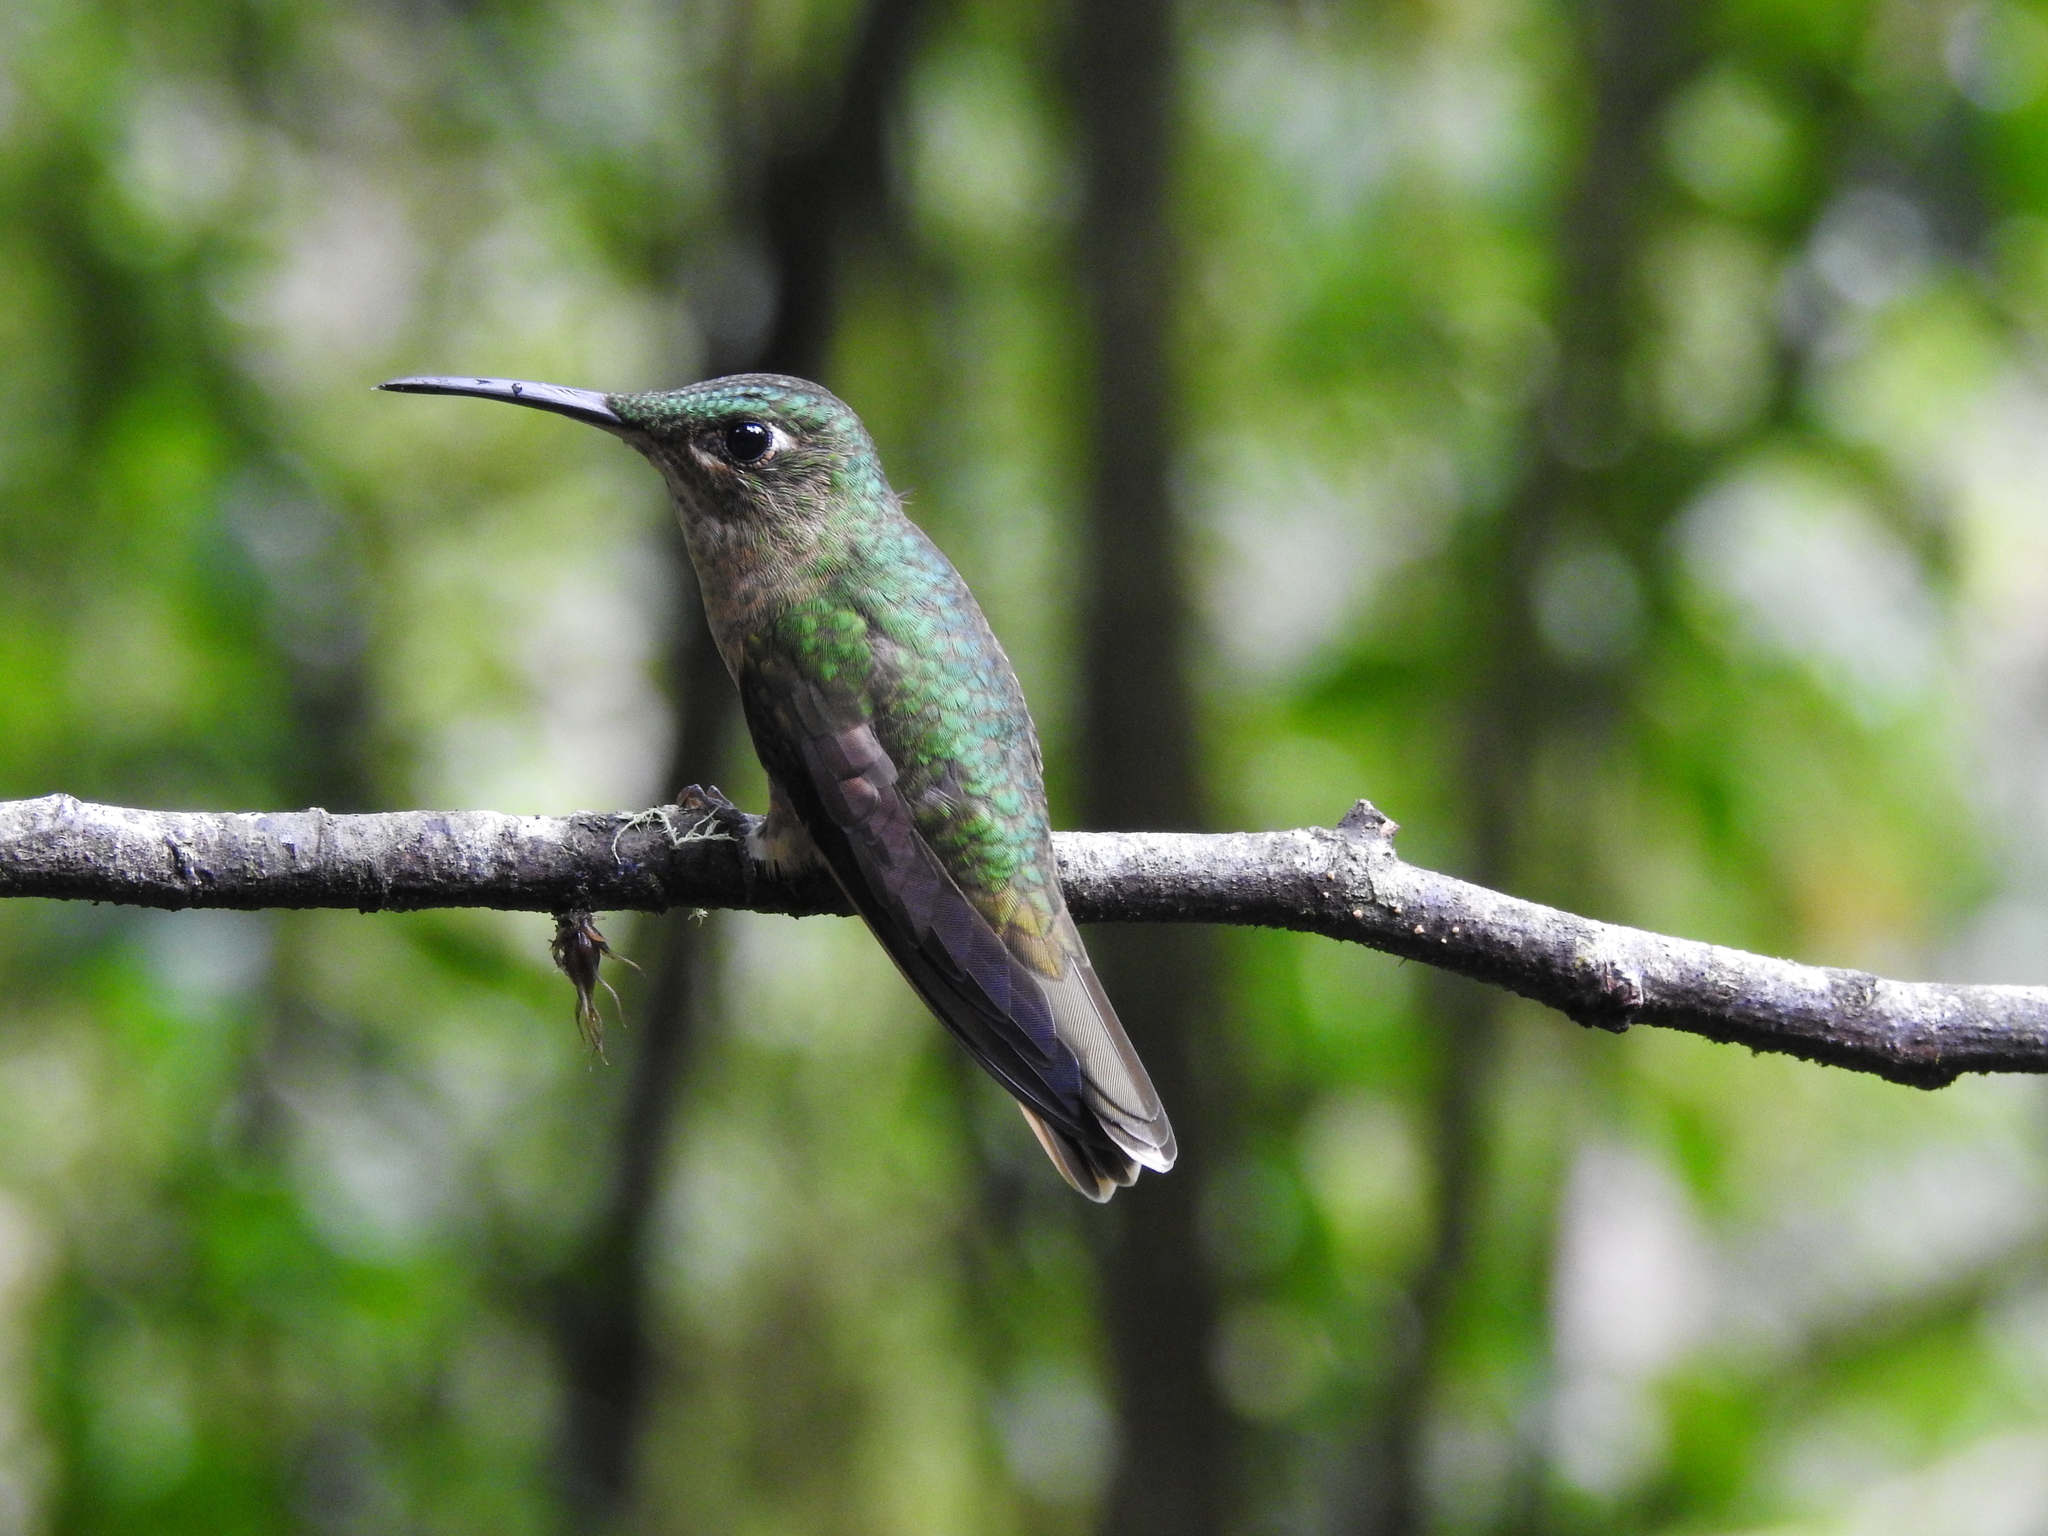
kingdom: Animalia
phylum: Chordata
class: Aves
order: Apodiformes
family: Trochilidae
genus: Heliodoxa
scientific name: Heliodoxa rubinoides
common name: Fawn-breasted brilliant
